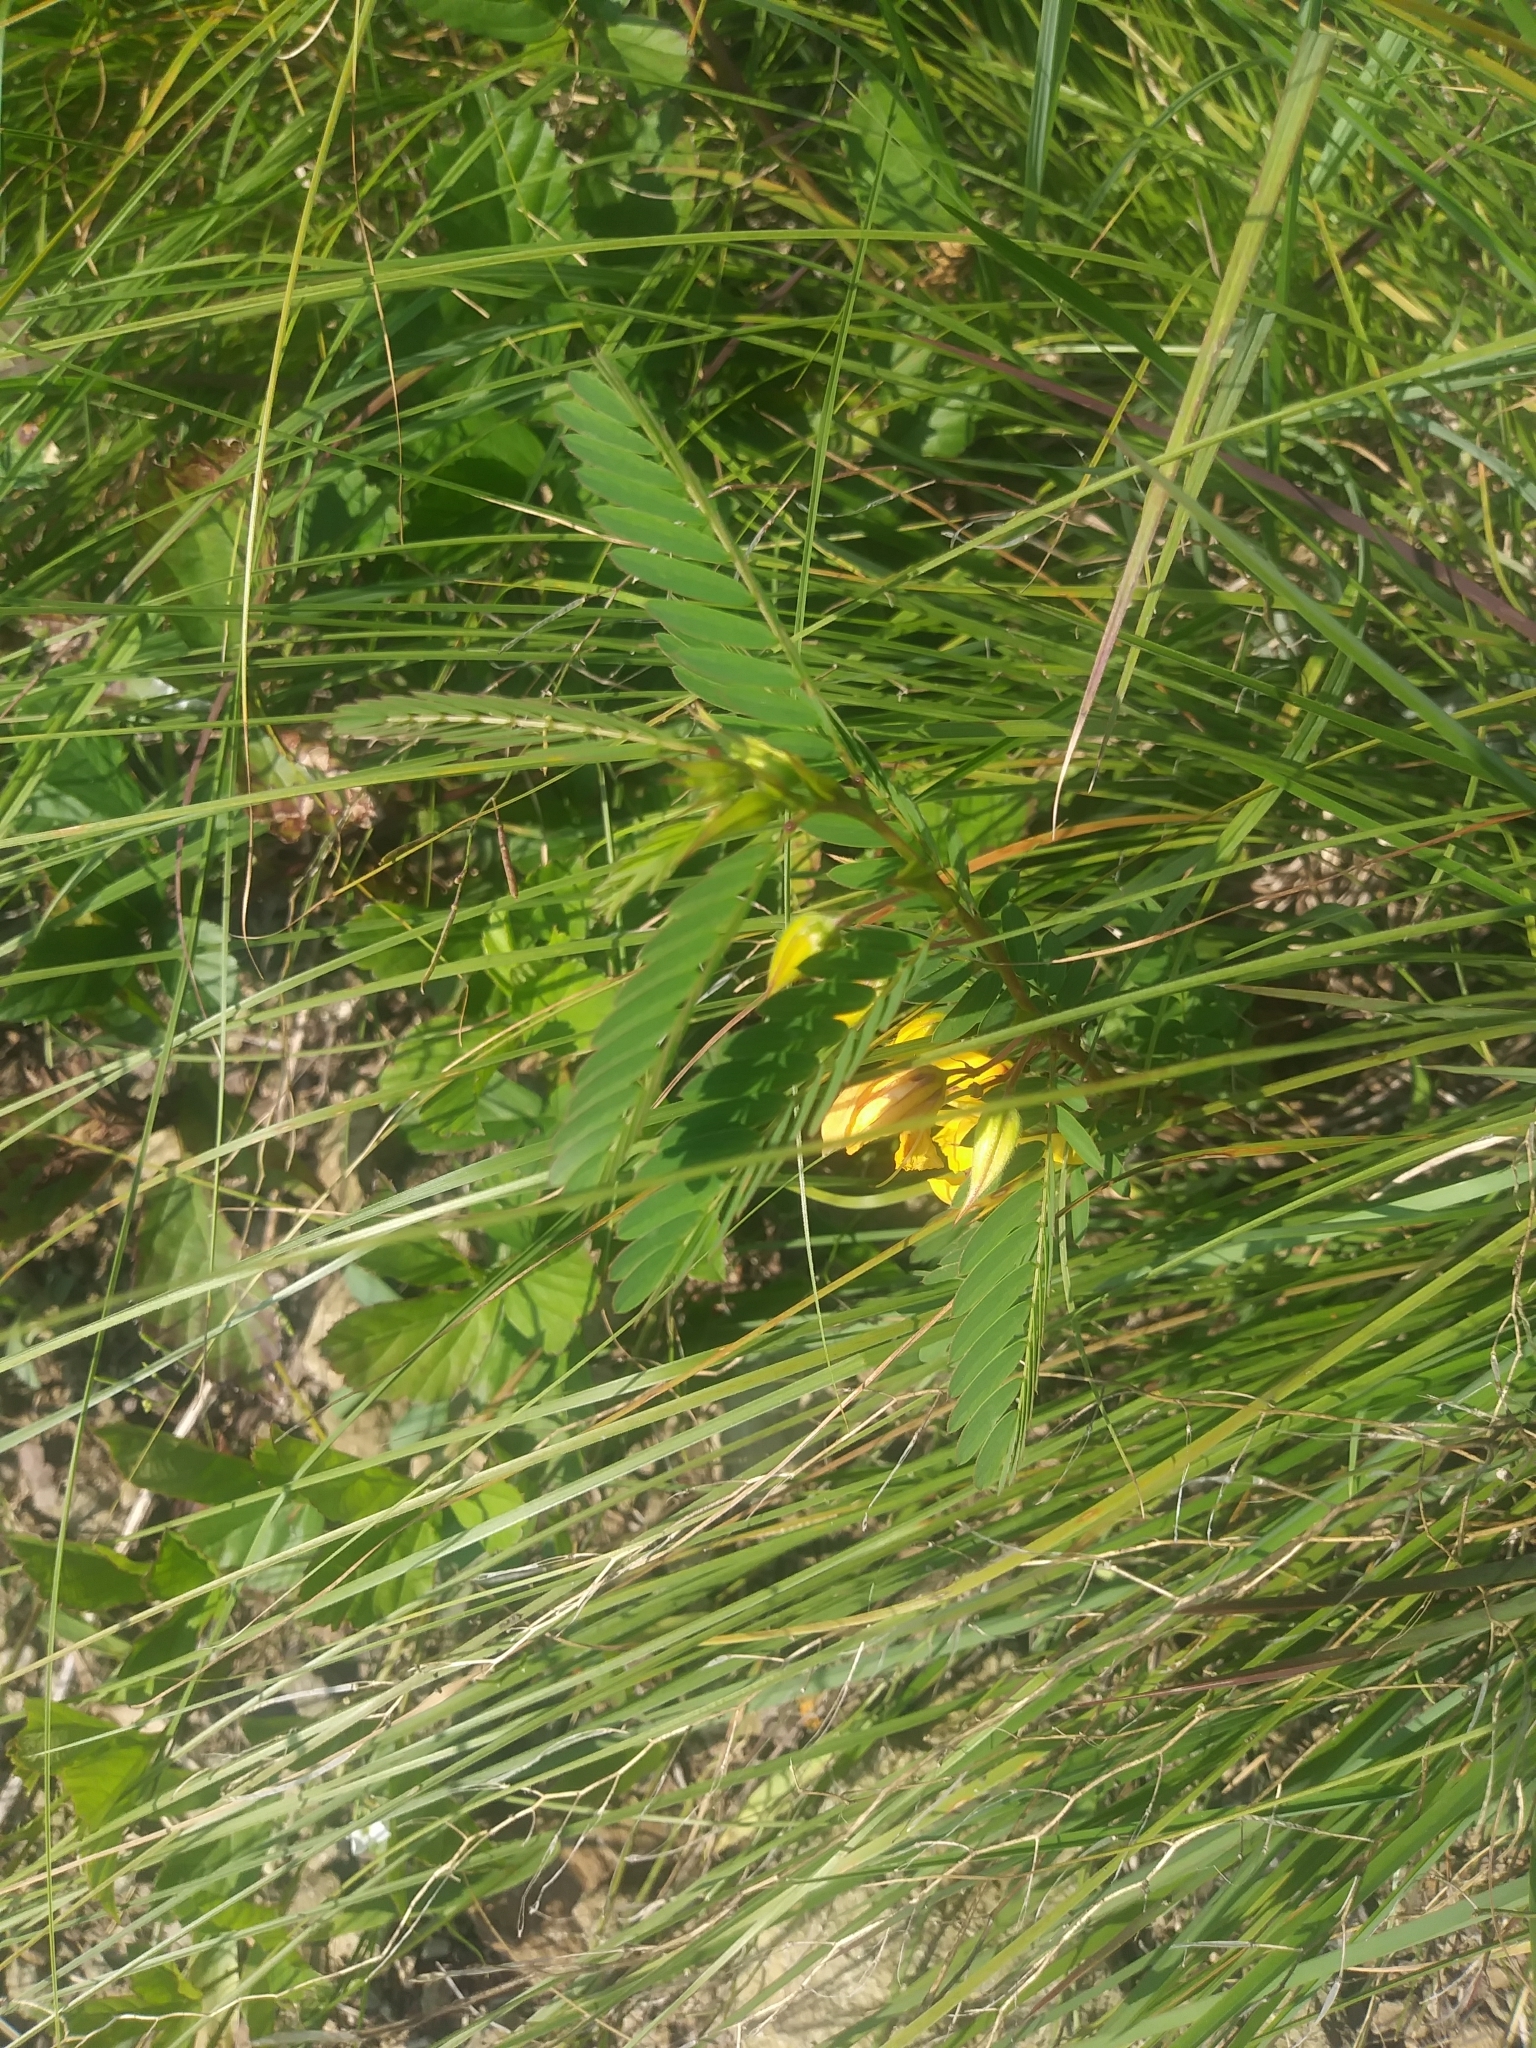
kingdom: Plantae
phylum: Tracheophyta
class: Magnoliopsida
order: Fabales
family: Fabaceae
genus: Chamaecrista
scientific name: Chamaecrista fasciculata
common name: Golden cassia
